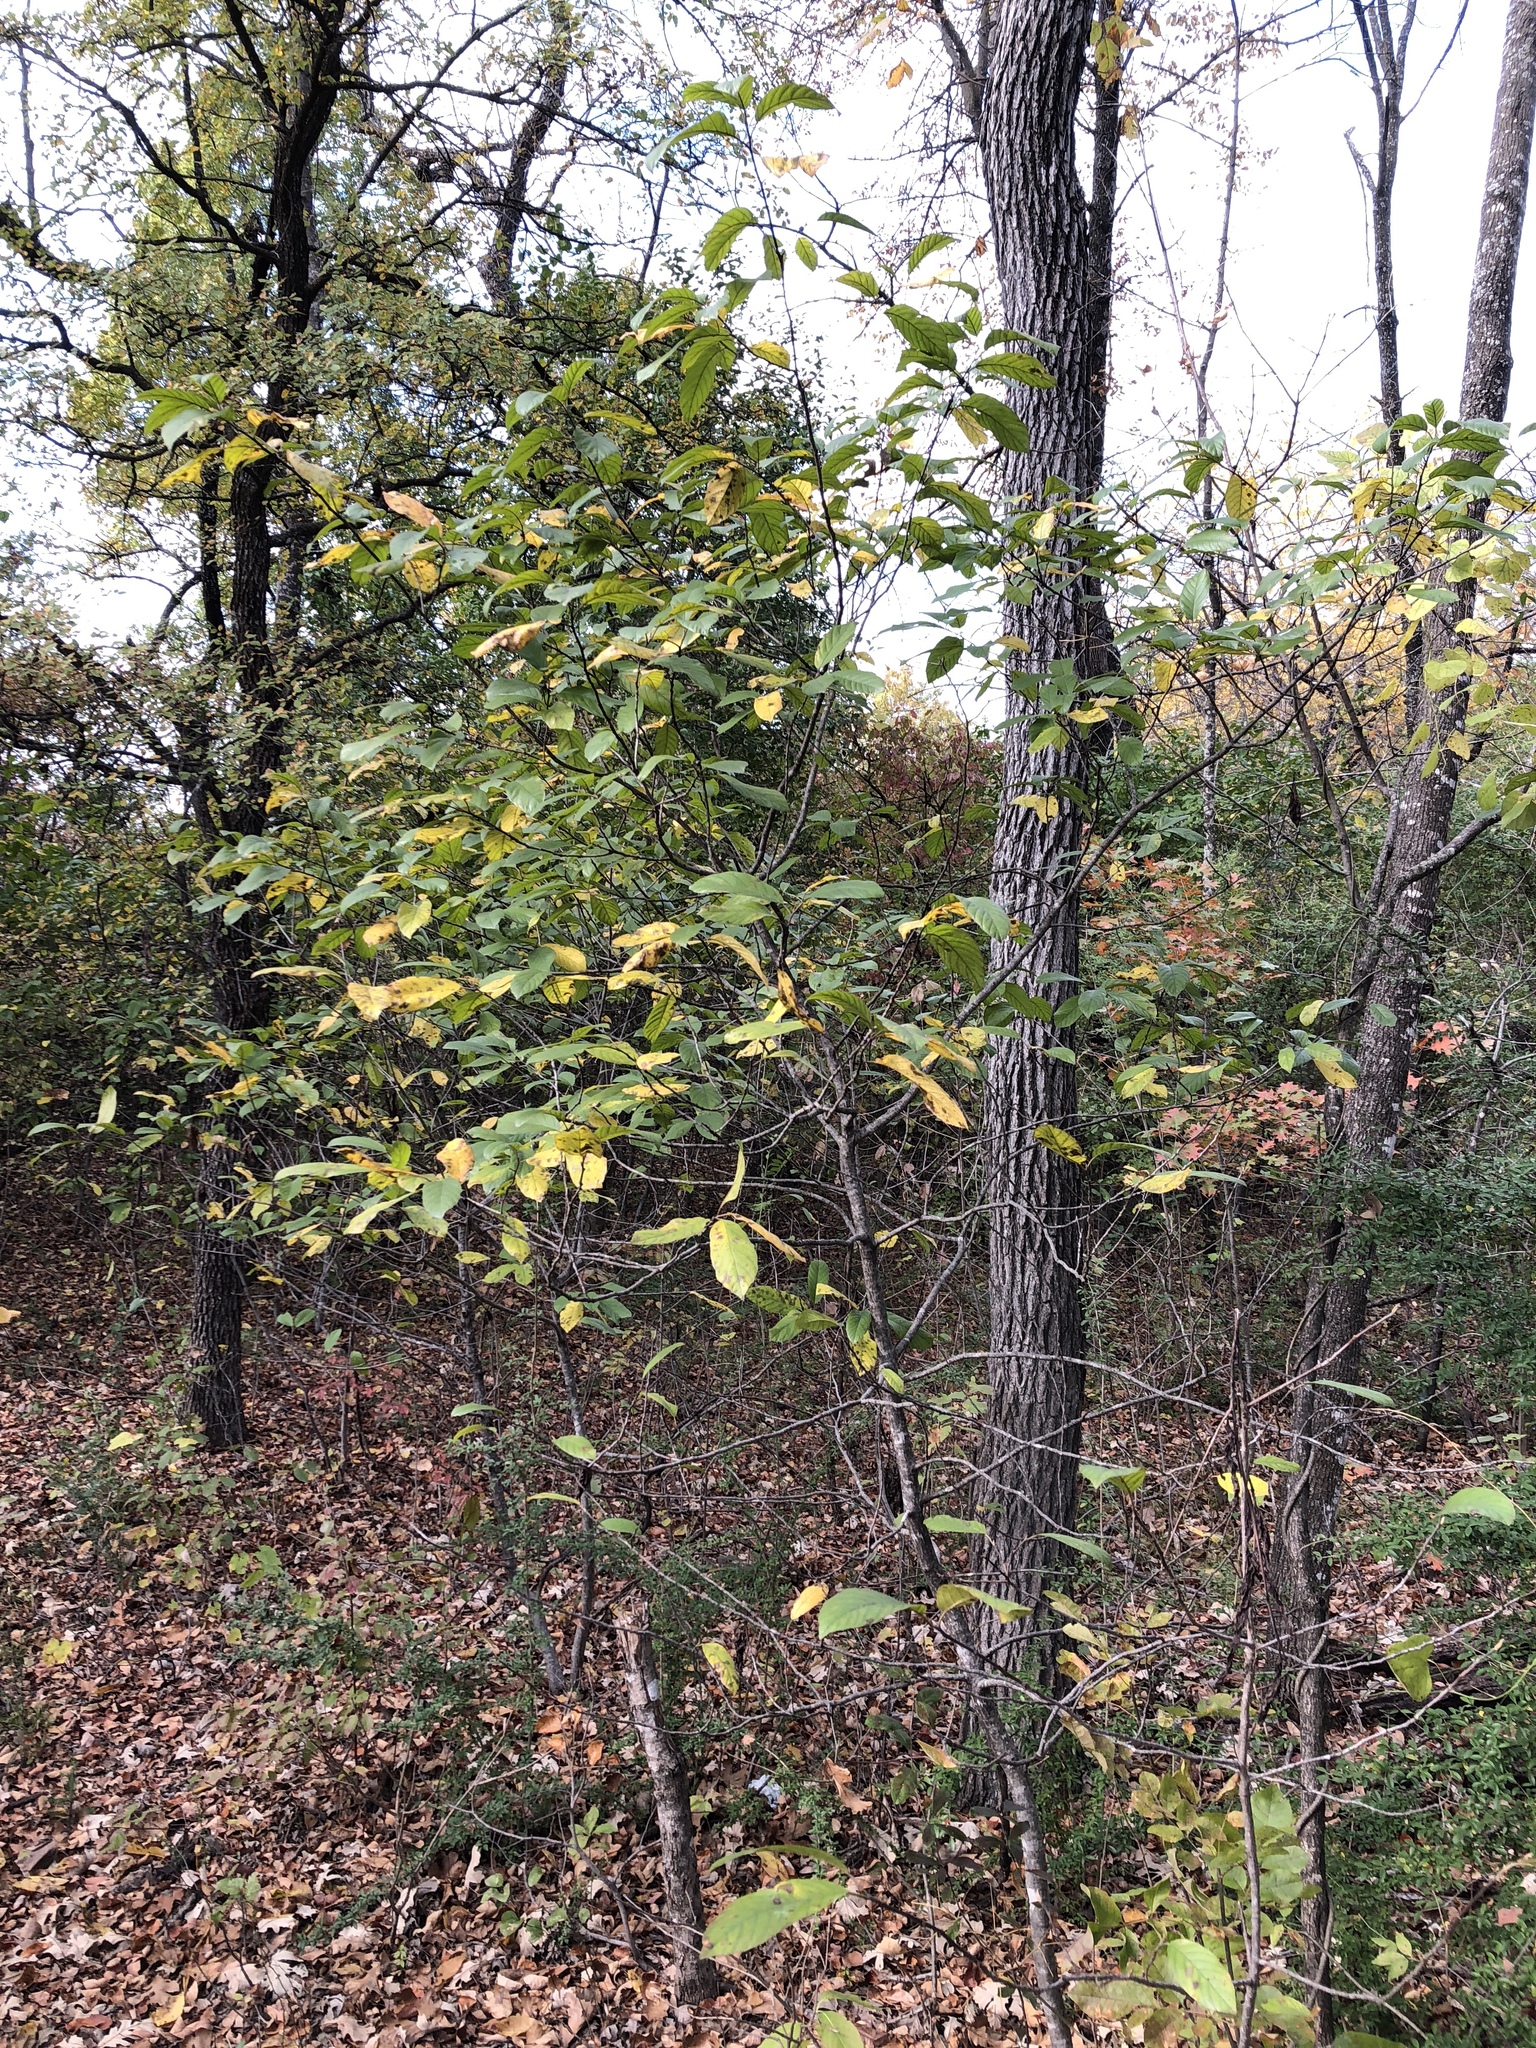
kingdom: Plantae
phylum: Tracheophyta
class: Magnoliopsida
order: Rosales
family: Rhamnaceae
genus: Frangula
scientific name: Frangula caroliniana
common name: Carolina buckthorn
